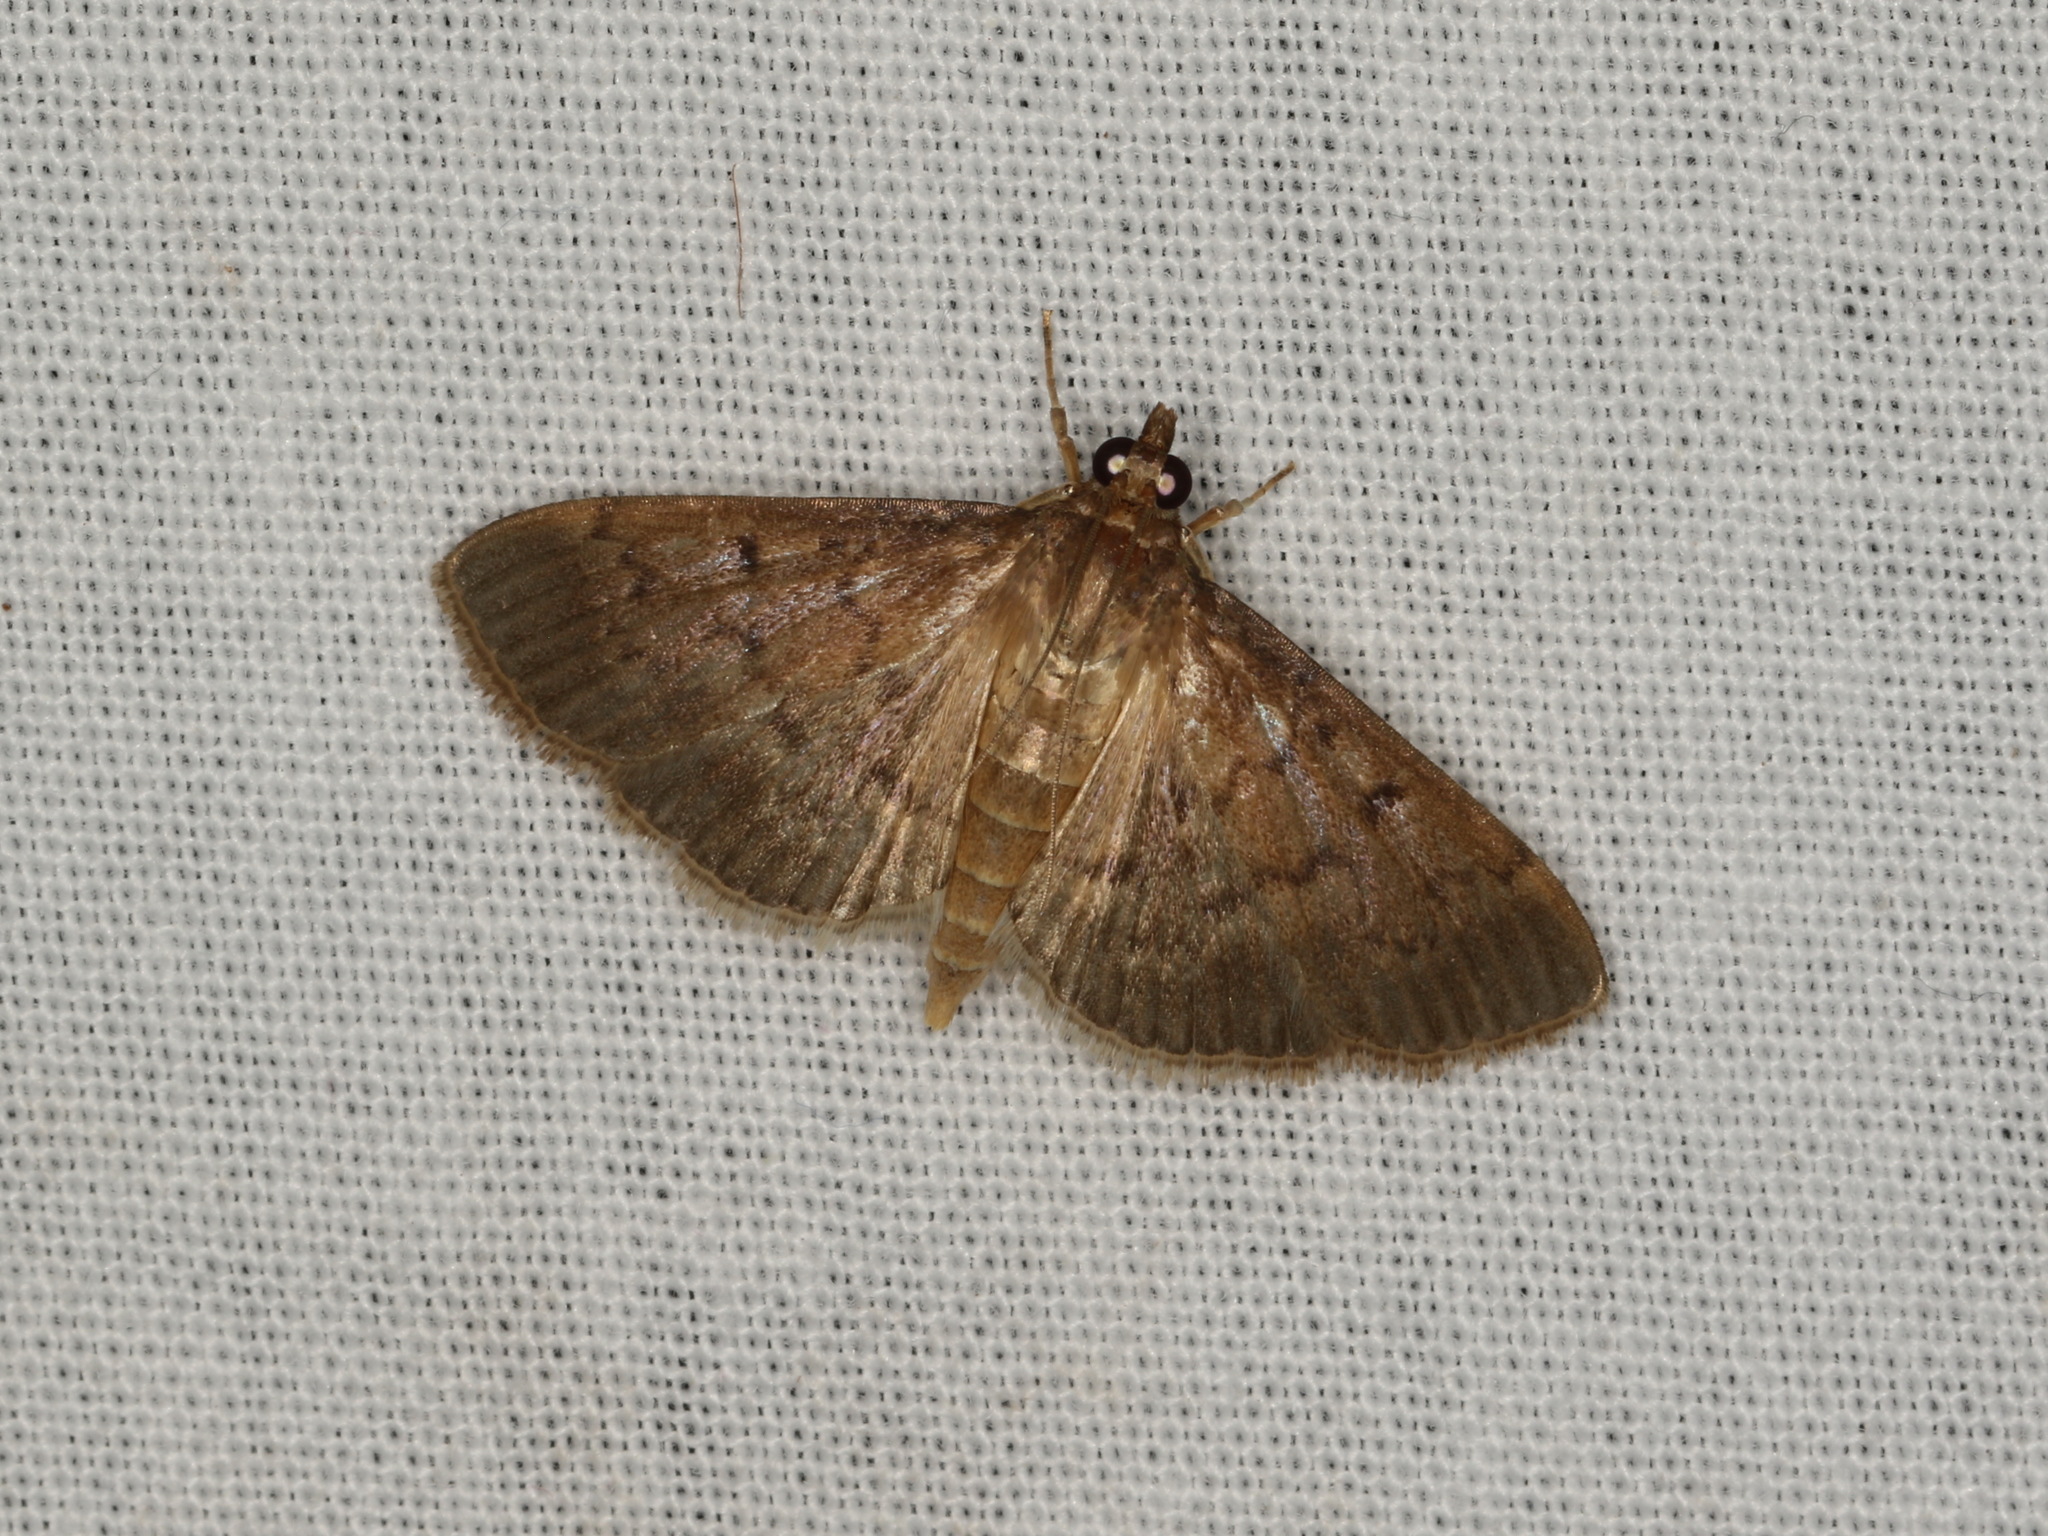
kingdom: Animalia
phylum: Arthropoda
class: Insecta
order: Lepidoptera
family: Crambidae
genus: Herpetogramma
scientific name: Herpetogramma licarsisalis
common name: Grass webworm
